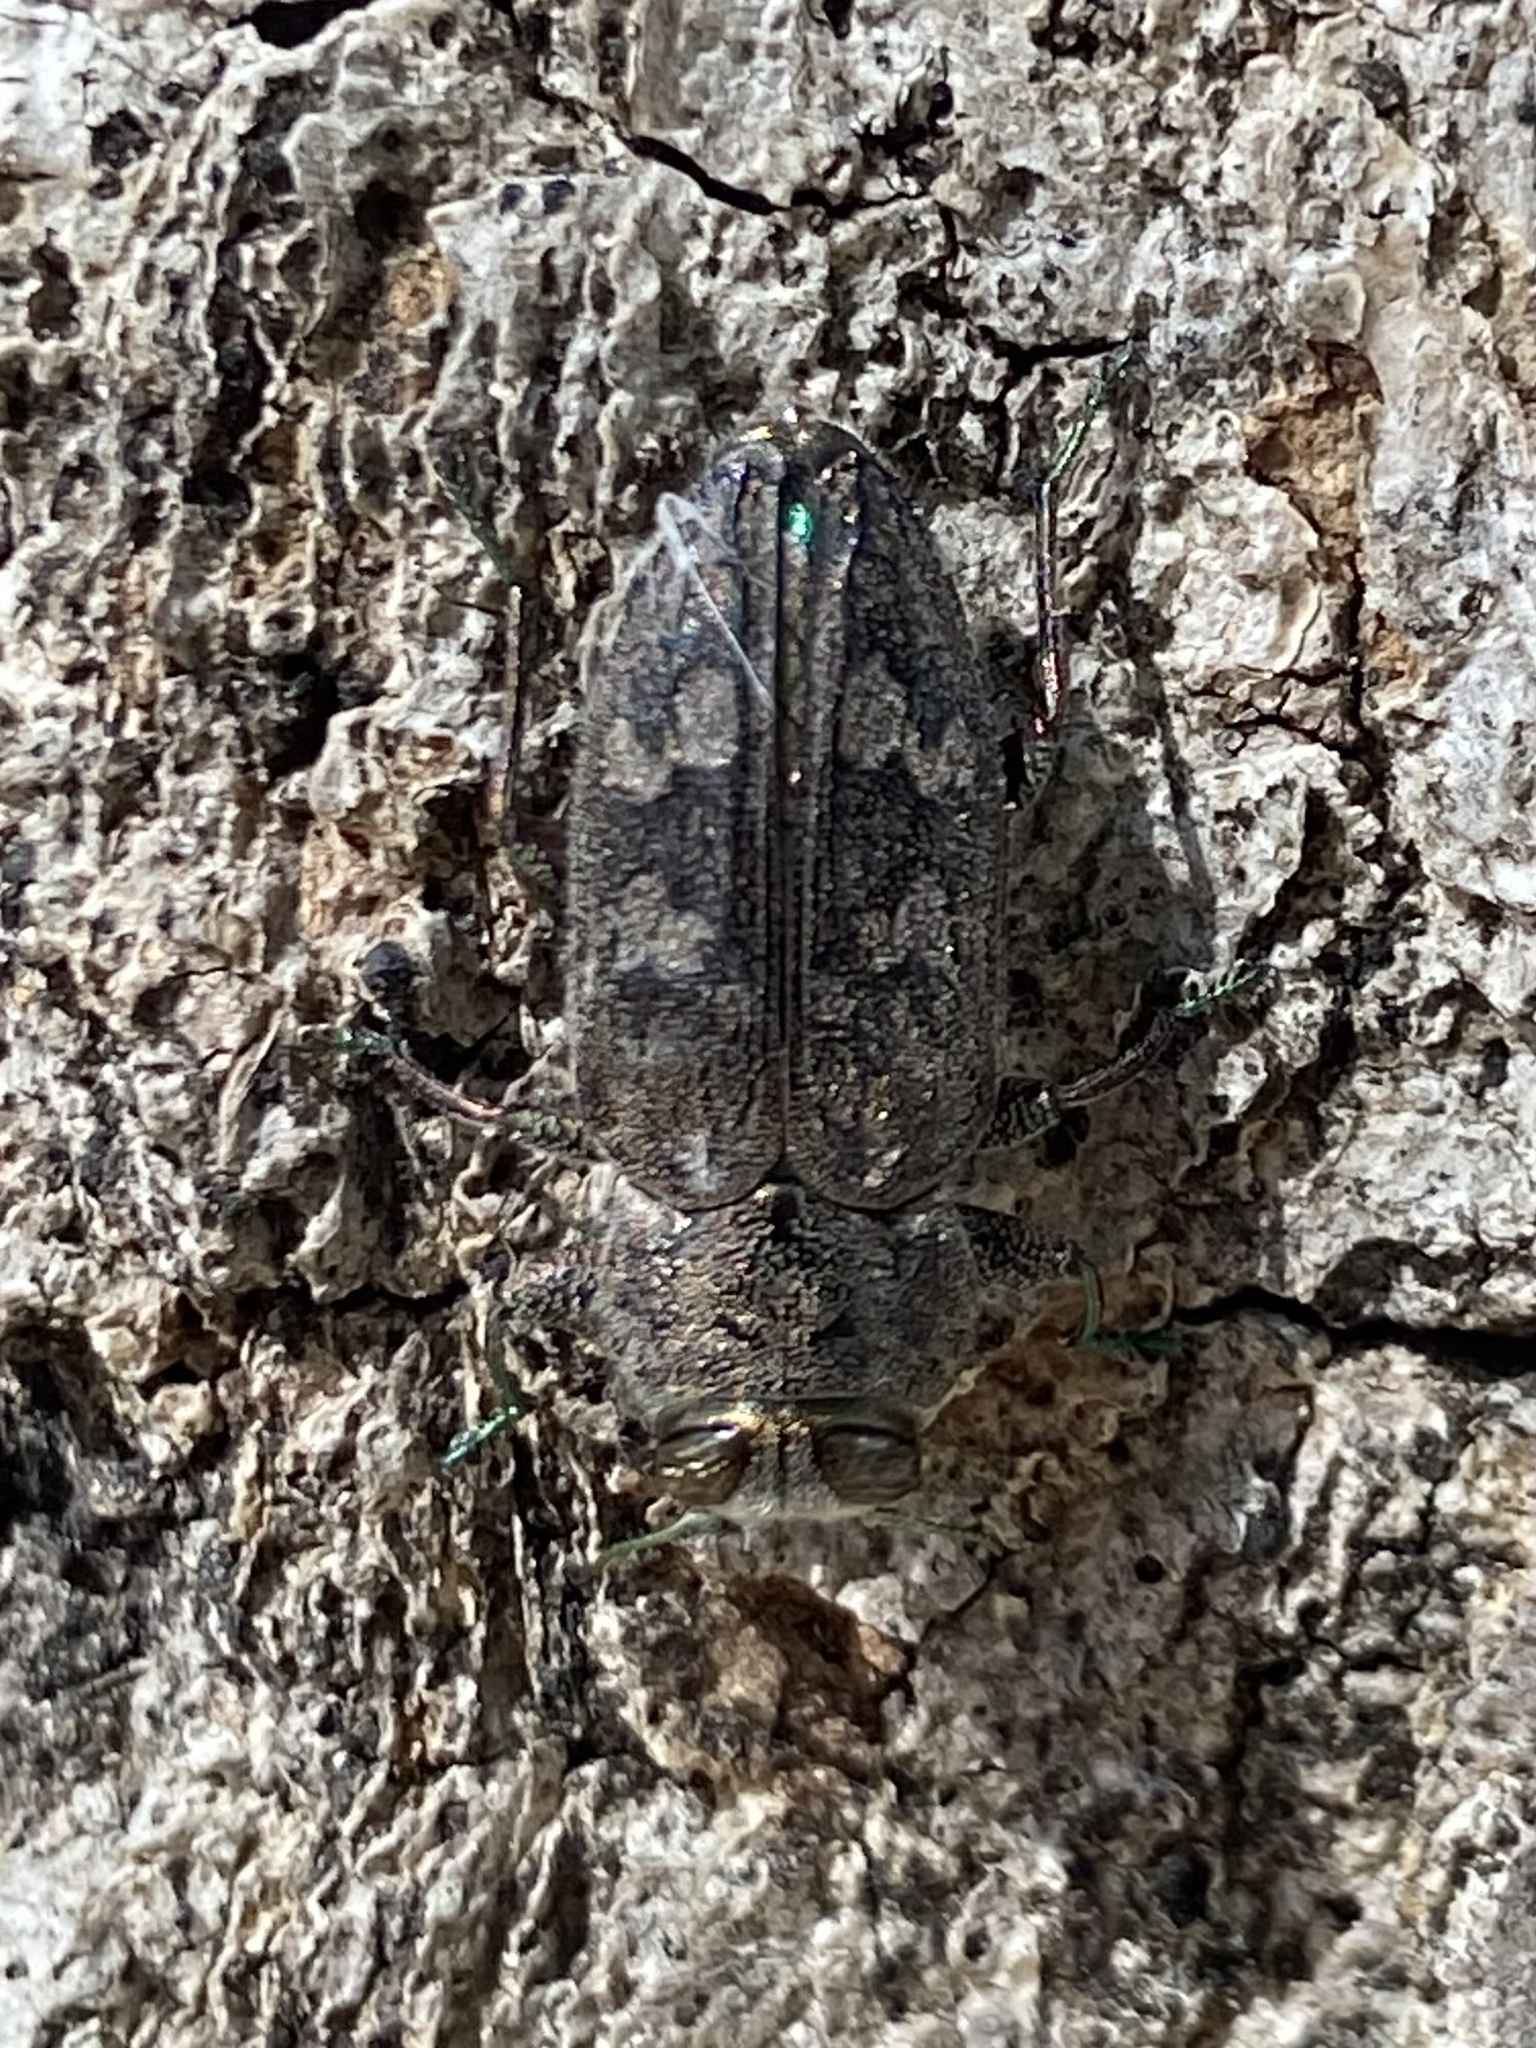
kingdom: Animalia
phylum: Arthropoda
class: Insecta
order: Coleoptera
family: Buprestidae
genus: Chrysobothris
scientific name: Chrysobothris
